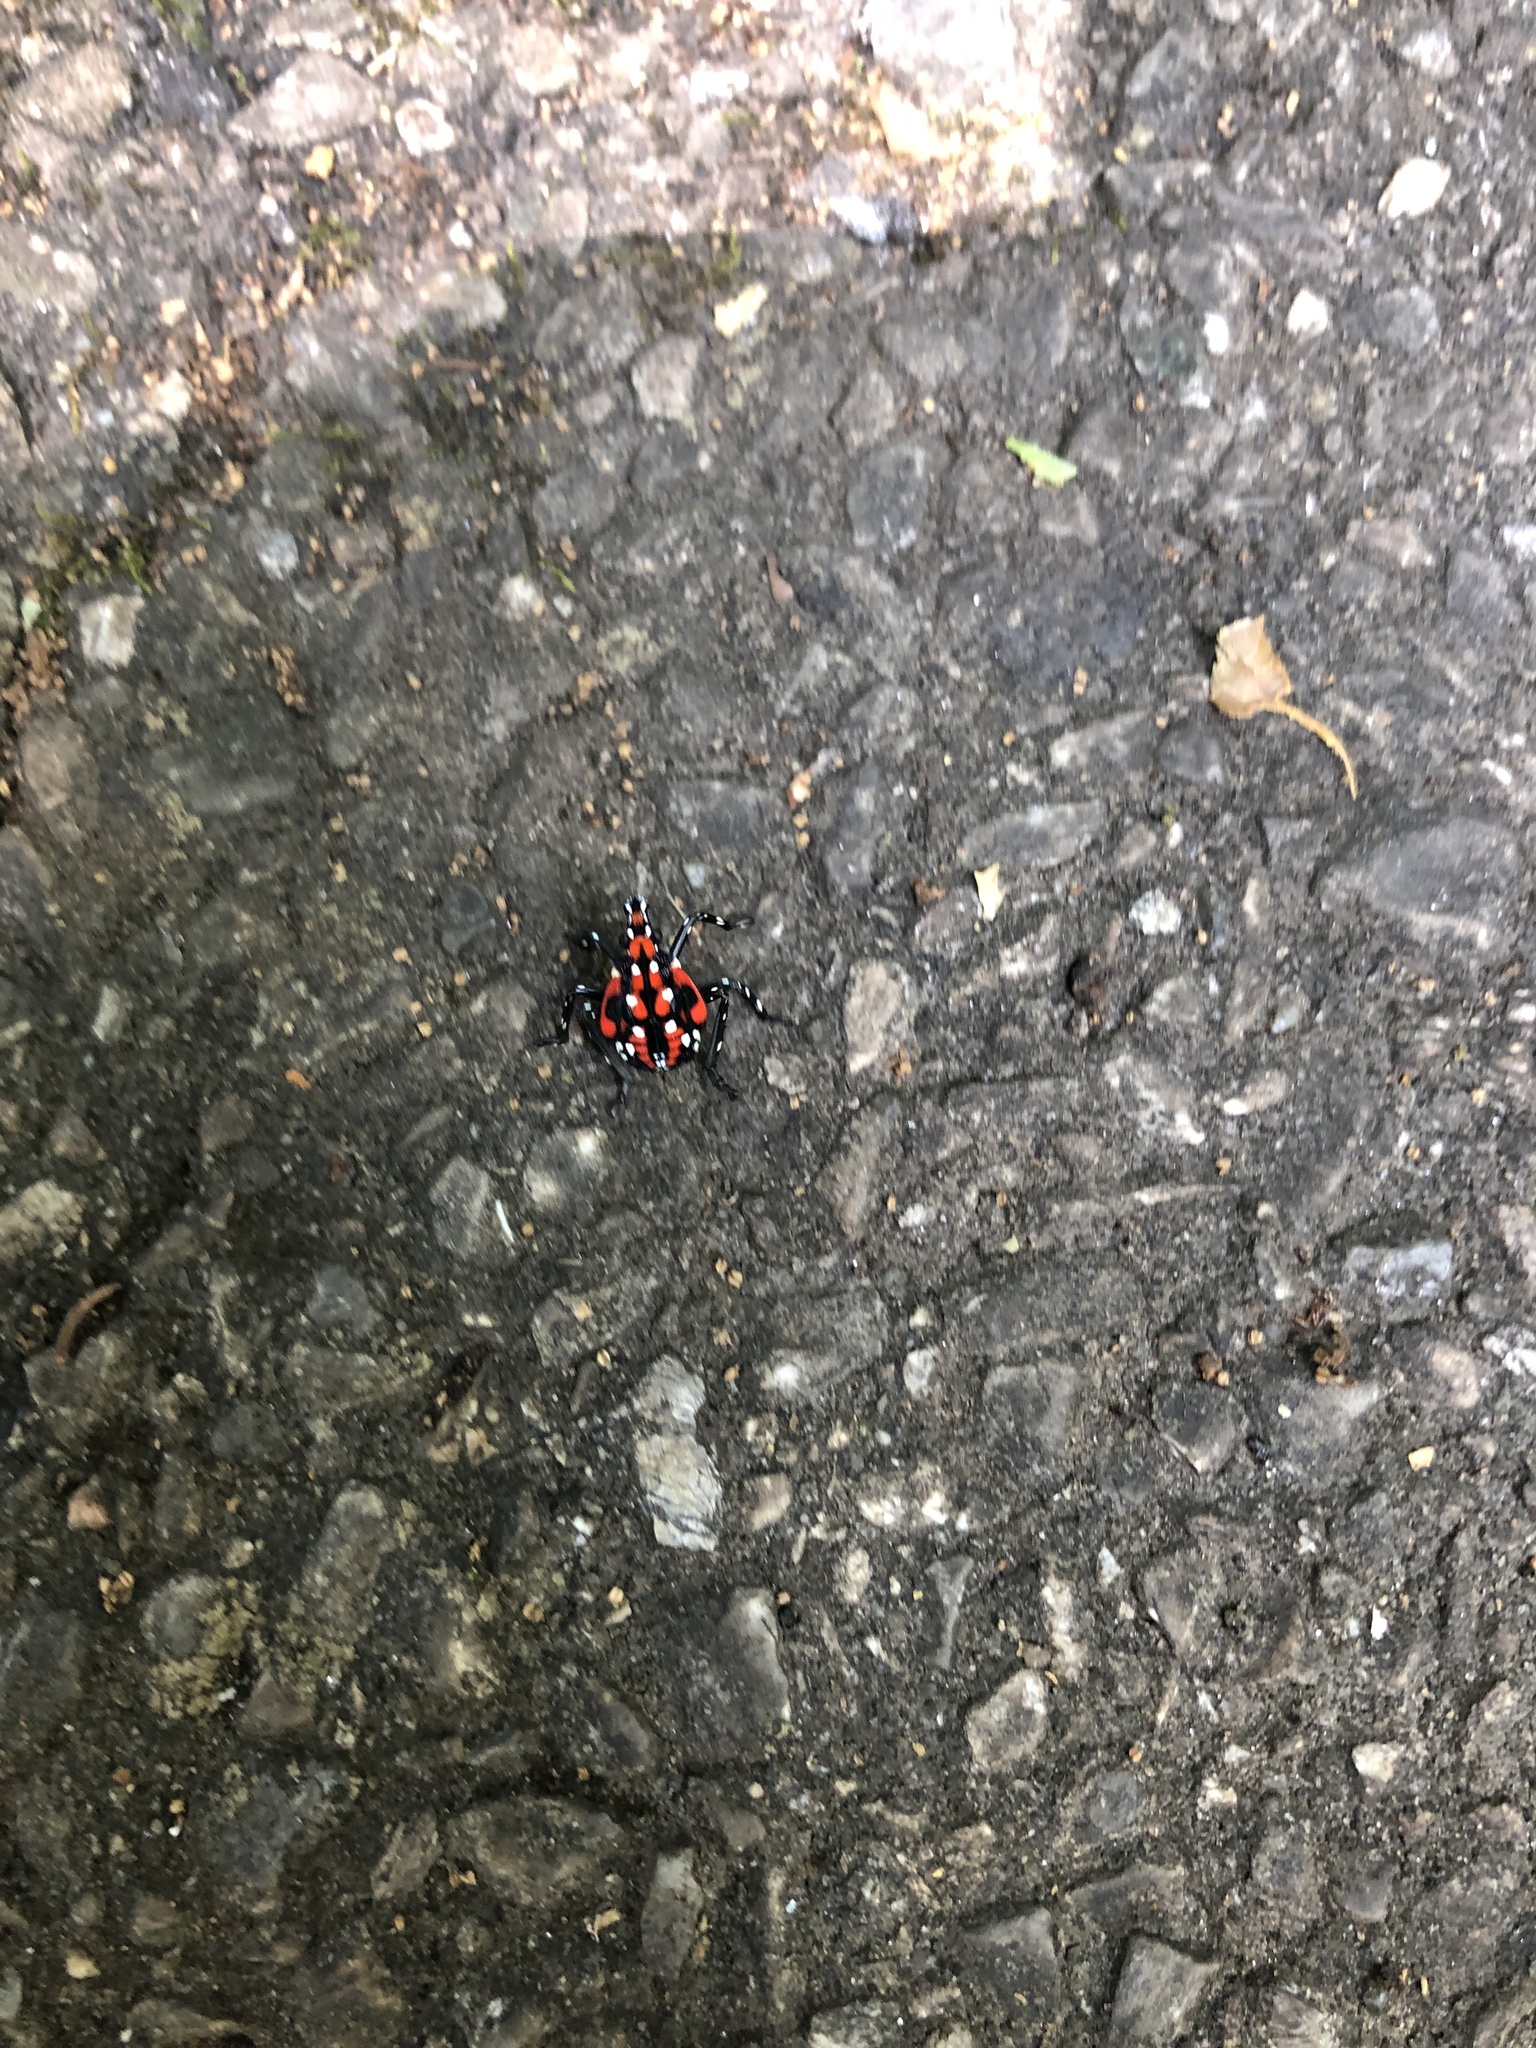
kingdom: Animalia
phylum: Arthropoda
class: Insecta
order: Hemiptera
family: Fulgoridae
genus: Lycorma
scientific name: Lycorma delicatula
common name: Spotted lanternfly
